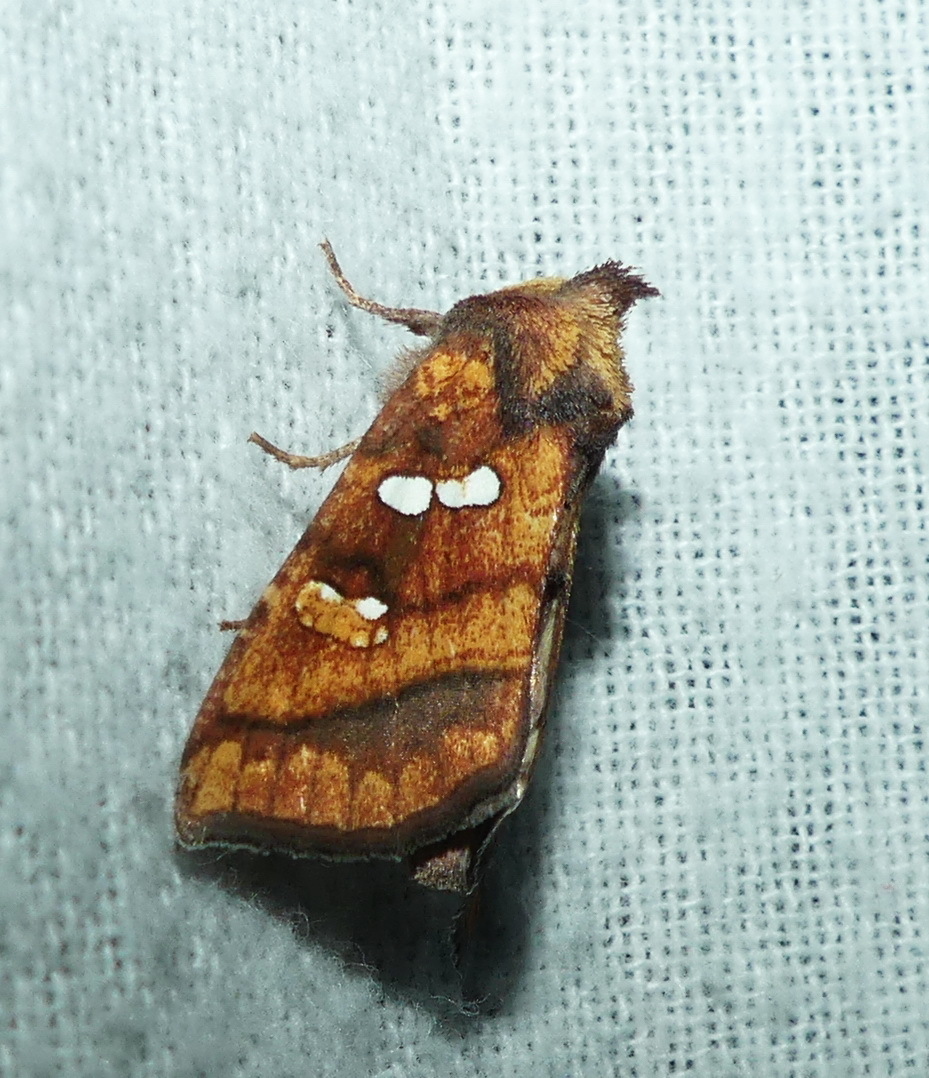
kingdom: Animalia
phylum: Arthropoda
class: Insecta
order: Lepidoptera
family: Noctuidae
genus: Papaipema
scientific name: Papaipema pterisii
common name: Bracken borer moth
